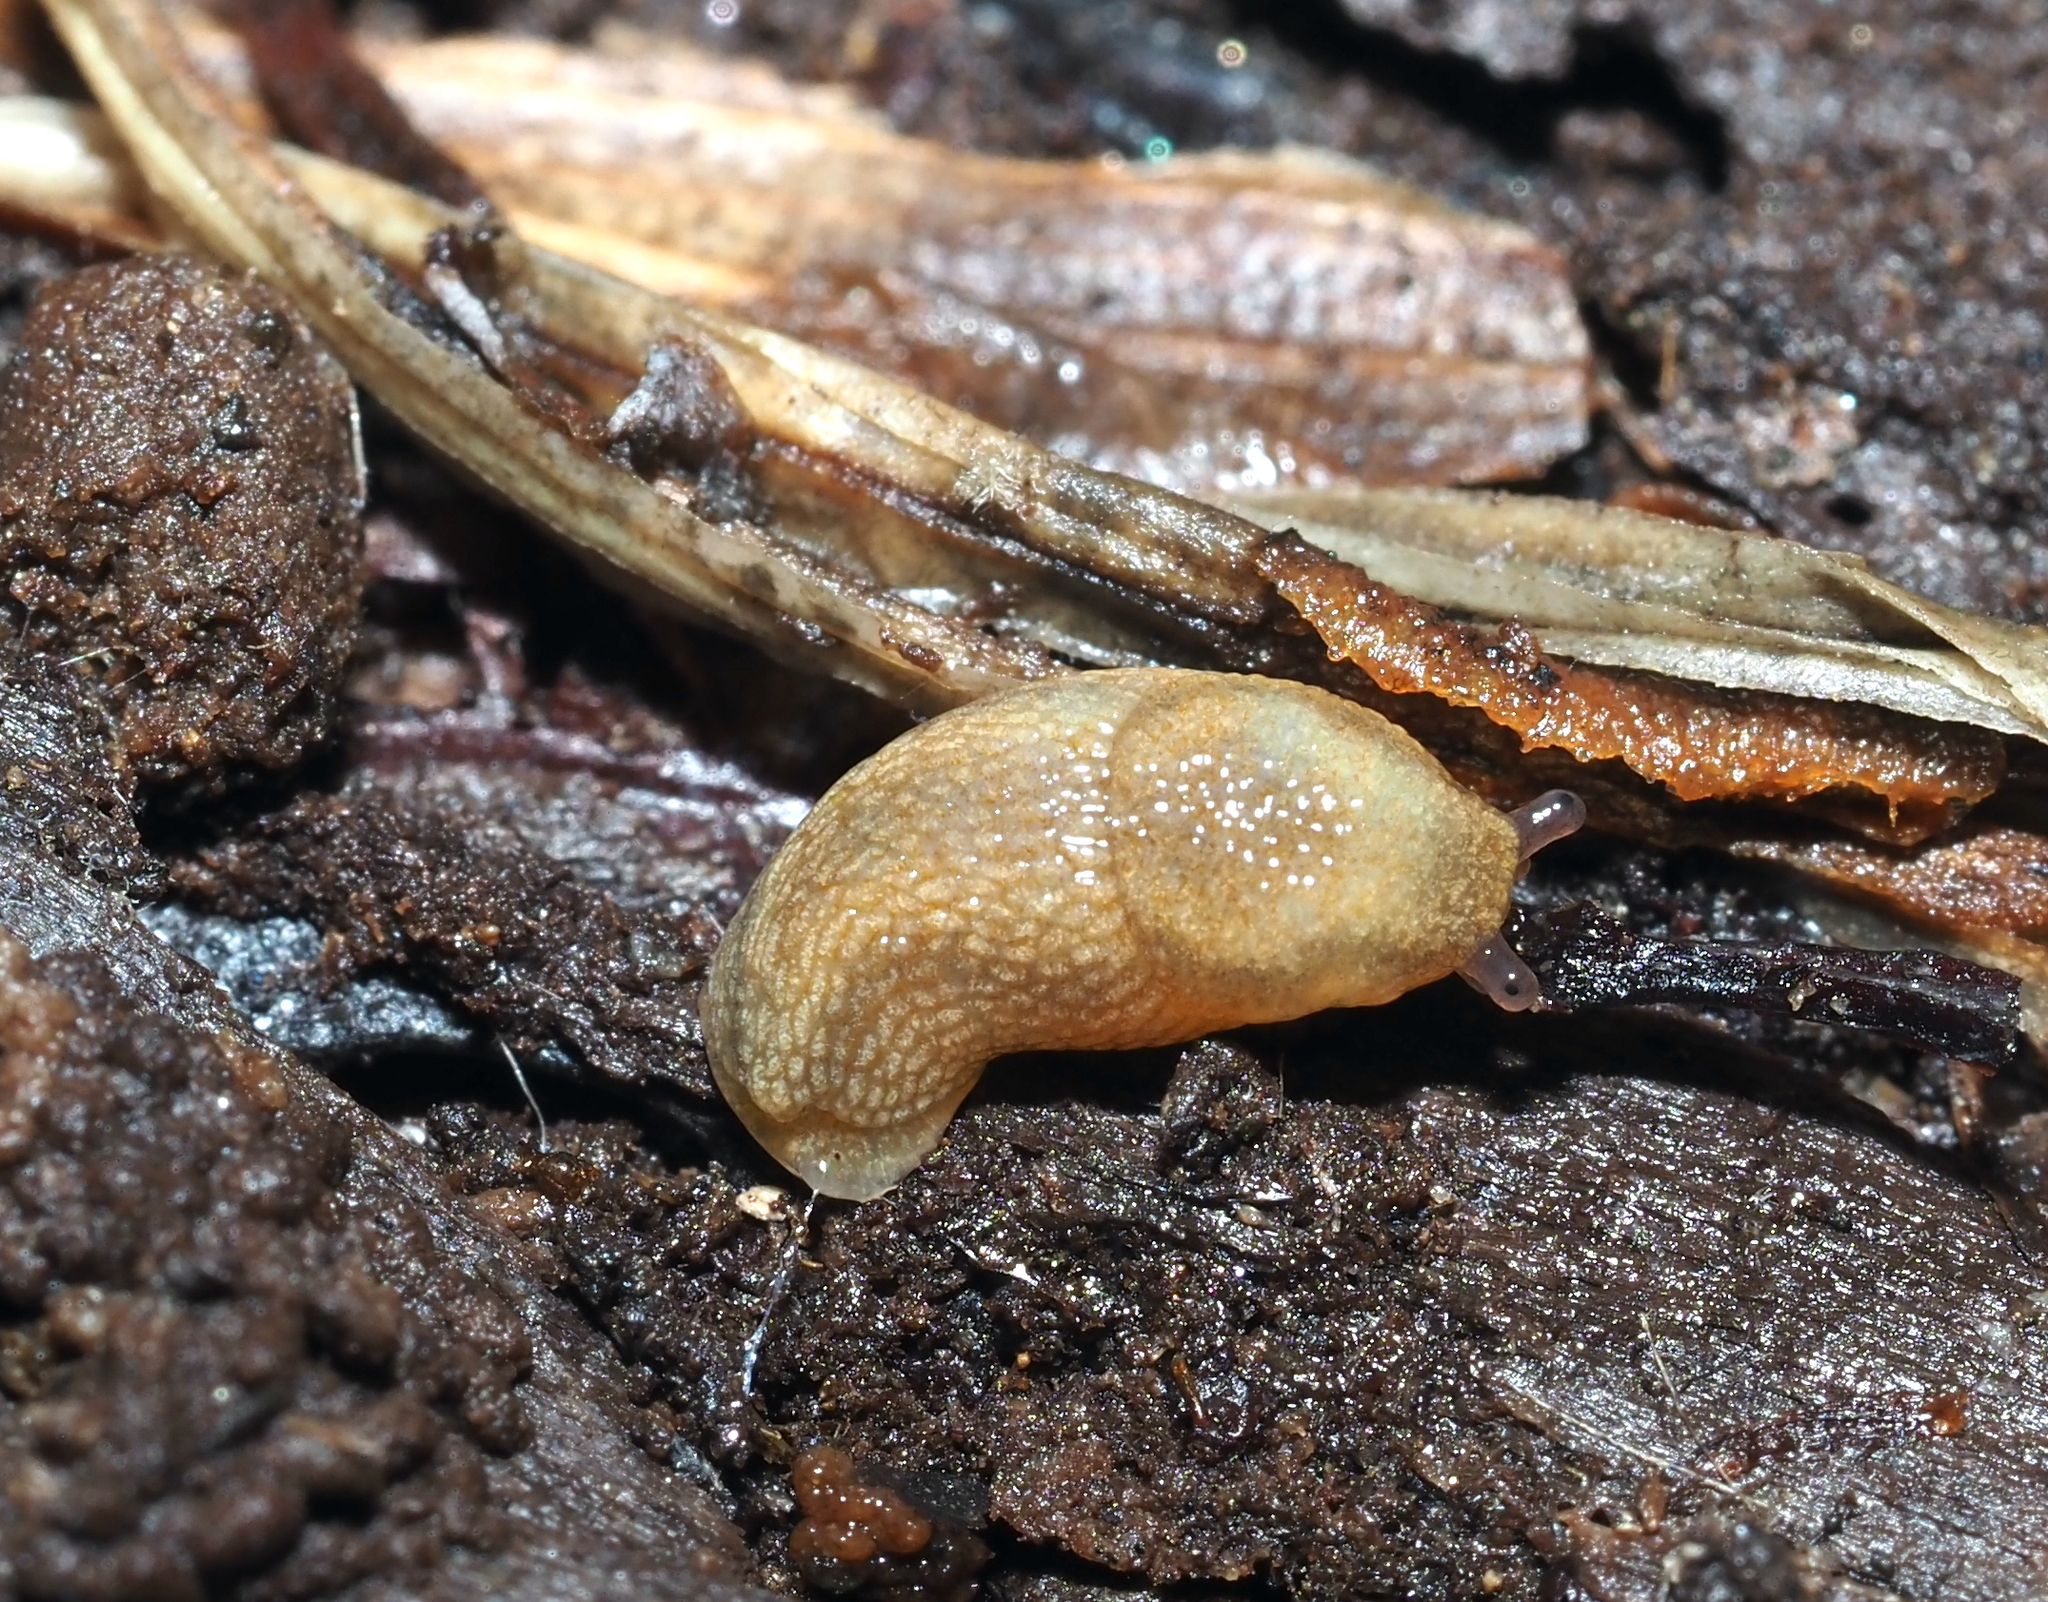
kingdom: Animalia
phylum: Mollusca
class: Gastropoda
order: Stylommatophora
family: Arionidae
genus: Arion
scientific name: Arion intermedius
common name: Hedgehog slug
